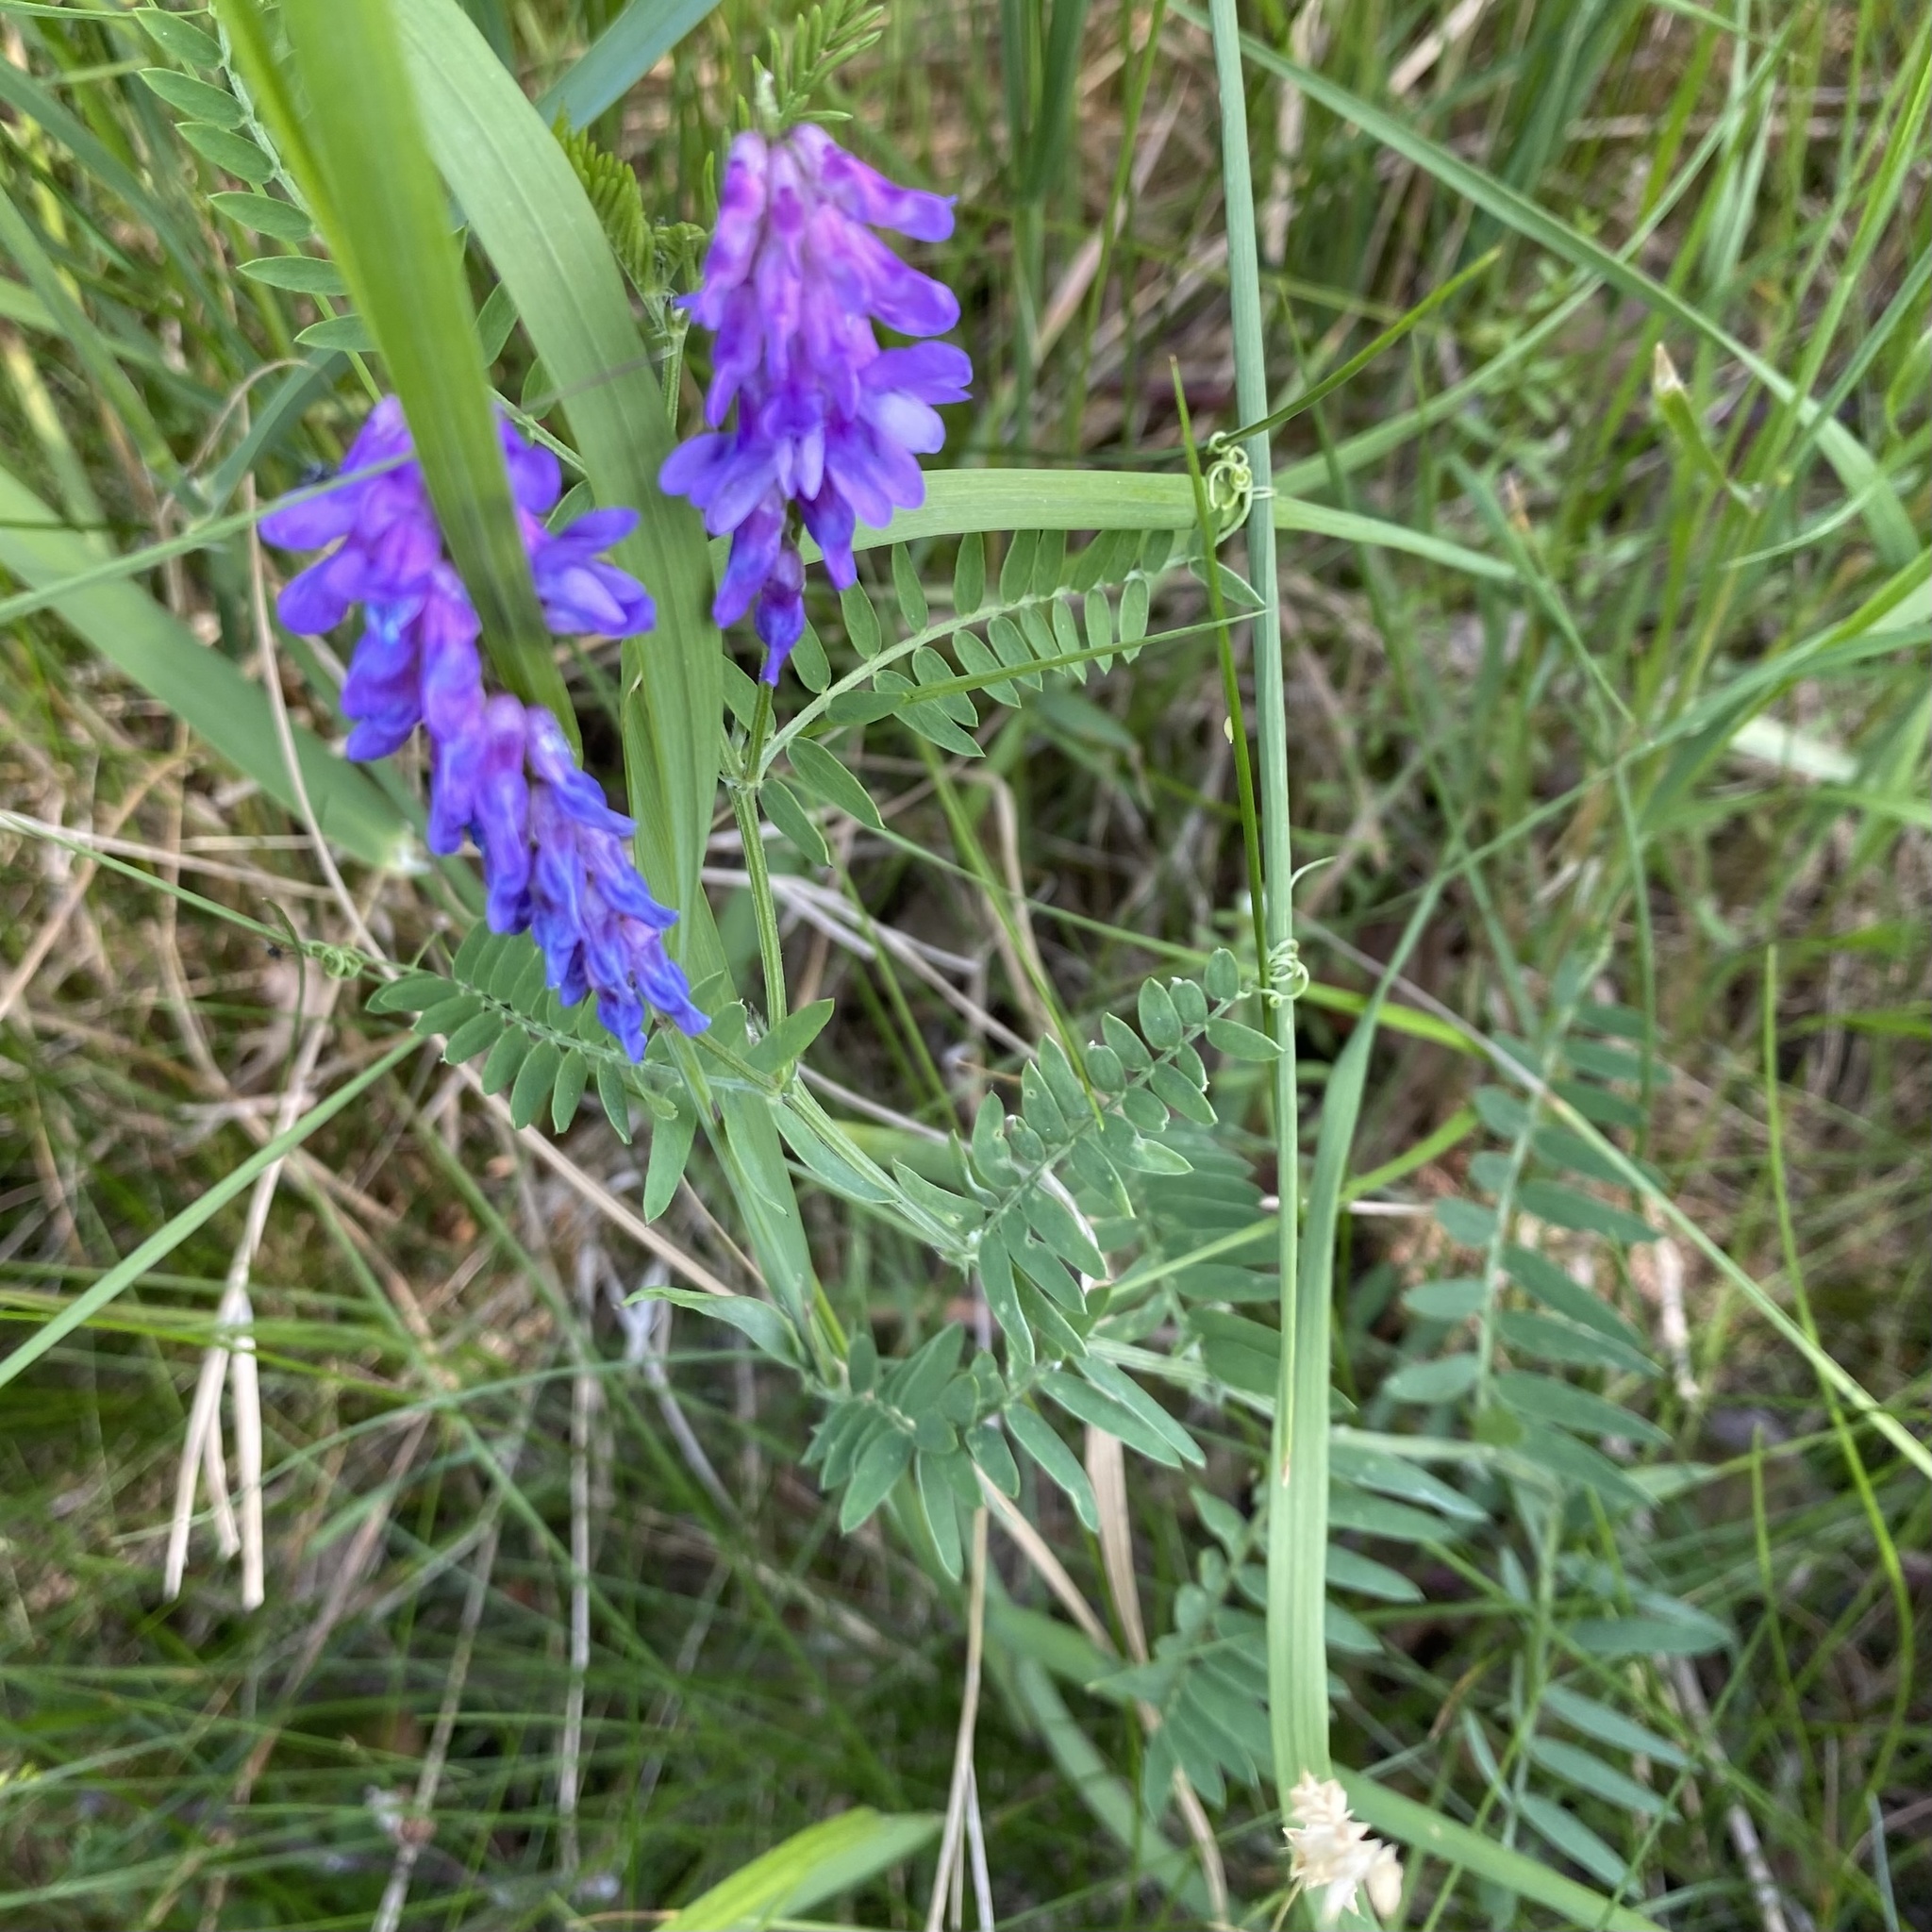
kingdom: Plantae
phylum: Tracheophyta
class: Magnoliopsida
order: Fabales
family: Fabaceae
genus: Vicia
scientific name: Vicia cracca
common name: Bird vetch
